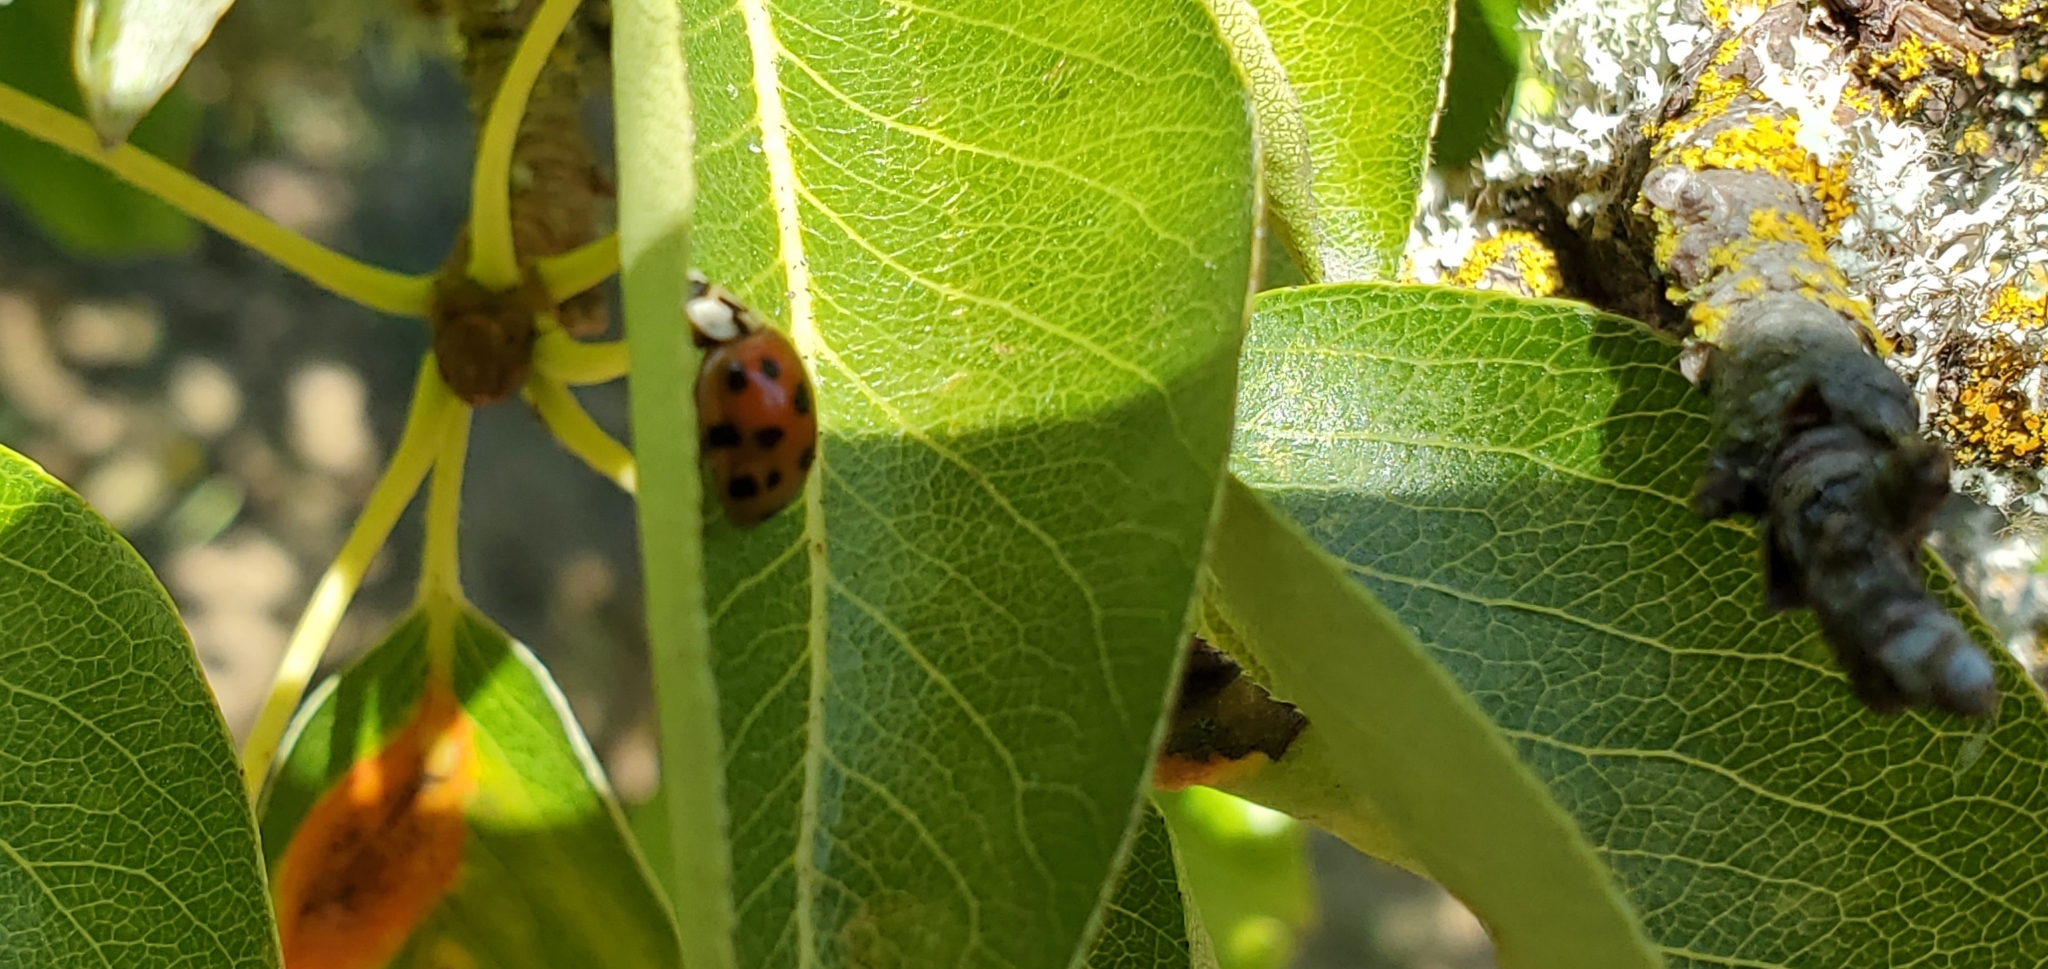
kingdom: Animalia
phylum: Arthropoda
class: Insecta
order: Coleoptera
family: Coccinellidae
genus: Harmonia
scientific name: Harmonia axyridis
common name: Harlequin ladybird
